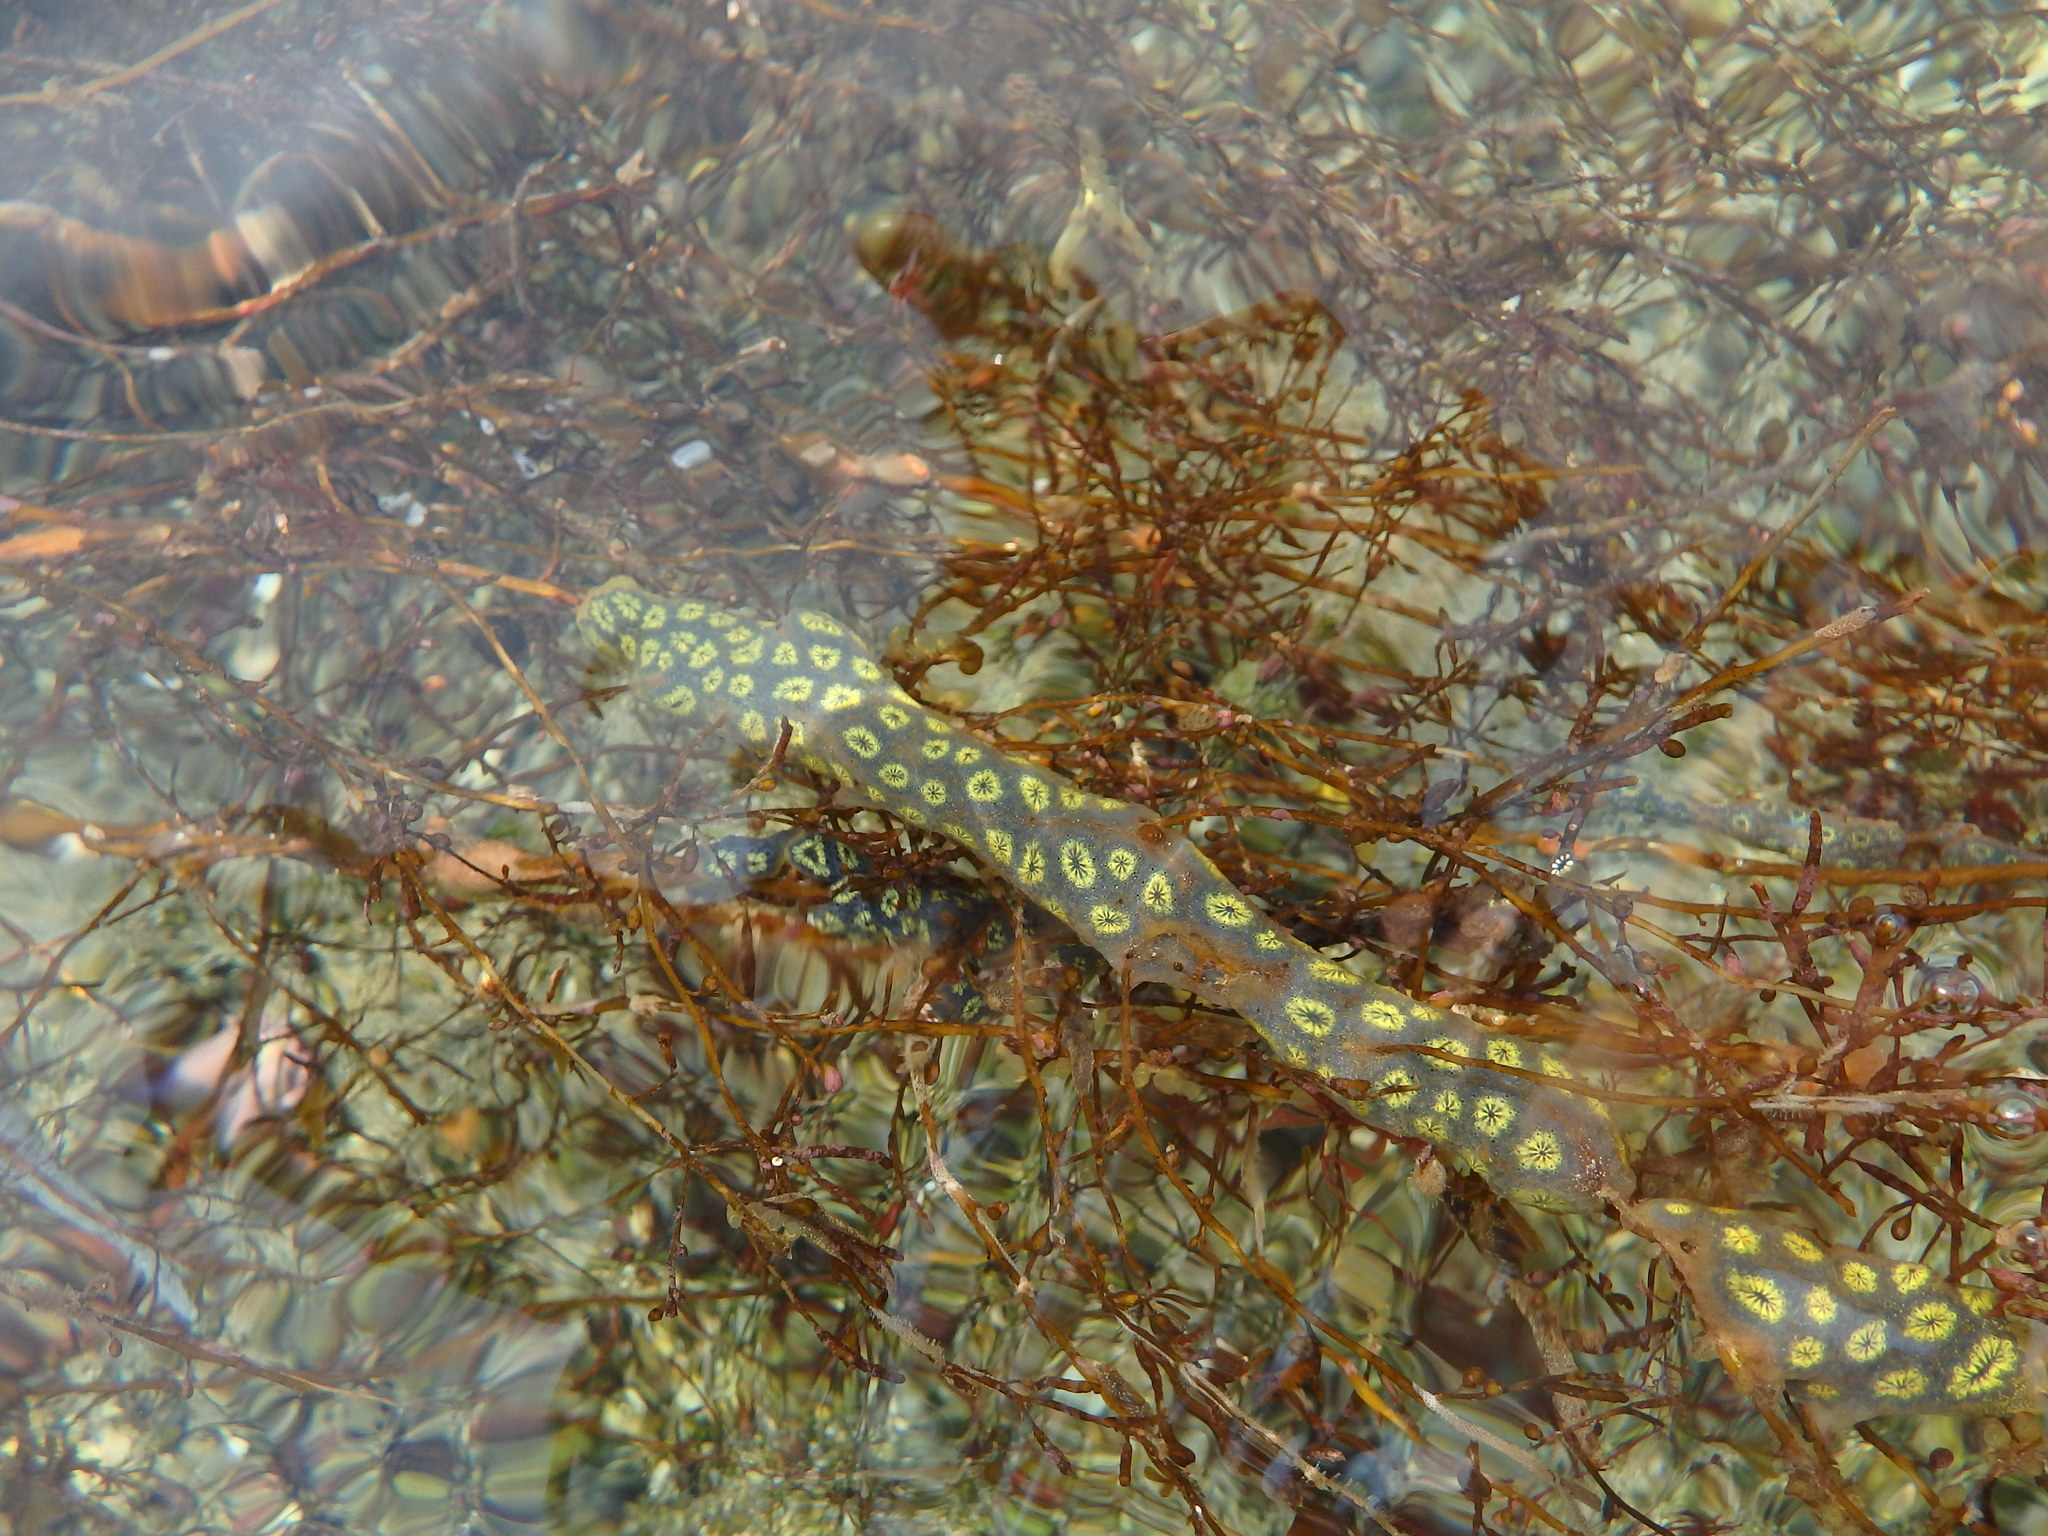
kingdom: Animalia
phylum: Chordata
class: Ascidiacea
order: Stolidobranchia
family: Styelidae
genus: Botryllus
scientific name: Botryllus schlosseri
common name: Golden star tunicate
